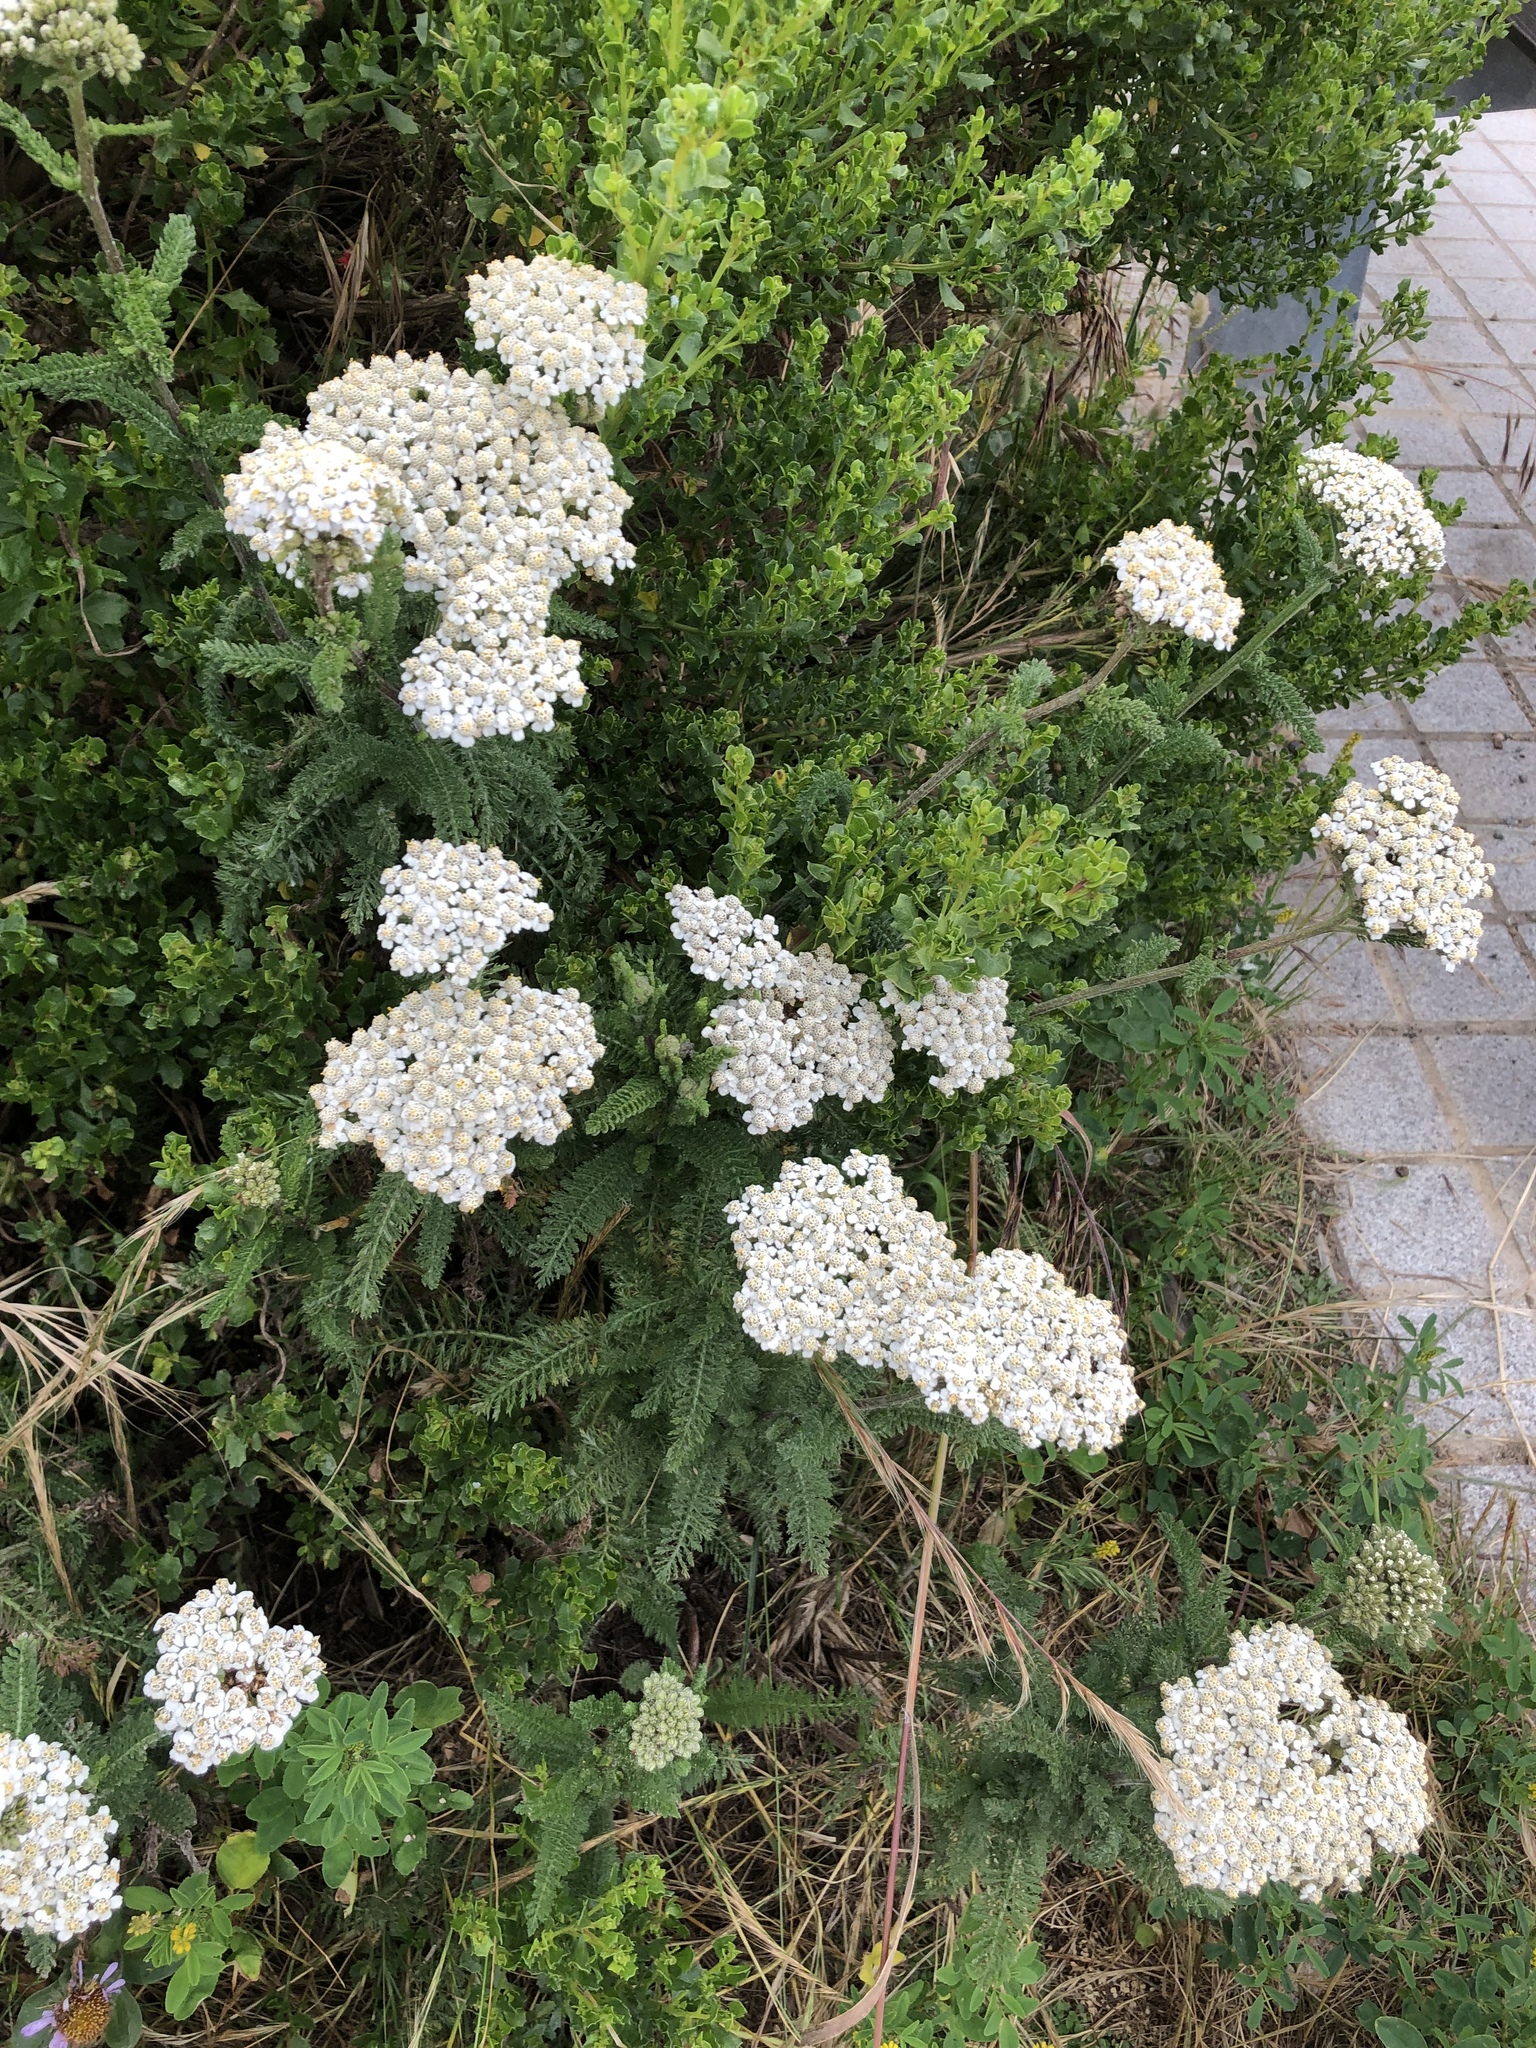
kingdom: Plantae
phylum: Tracheophyta
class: Magnoliopsida
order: Asterales
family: Asteraceae
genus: Achillea
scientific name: Achillea millefolium
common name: Yarrow
